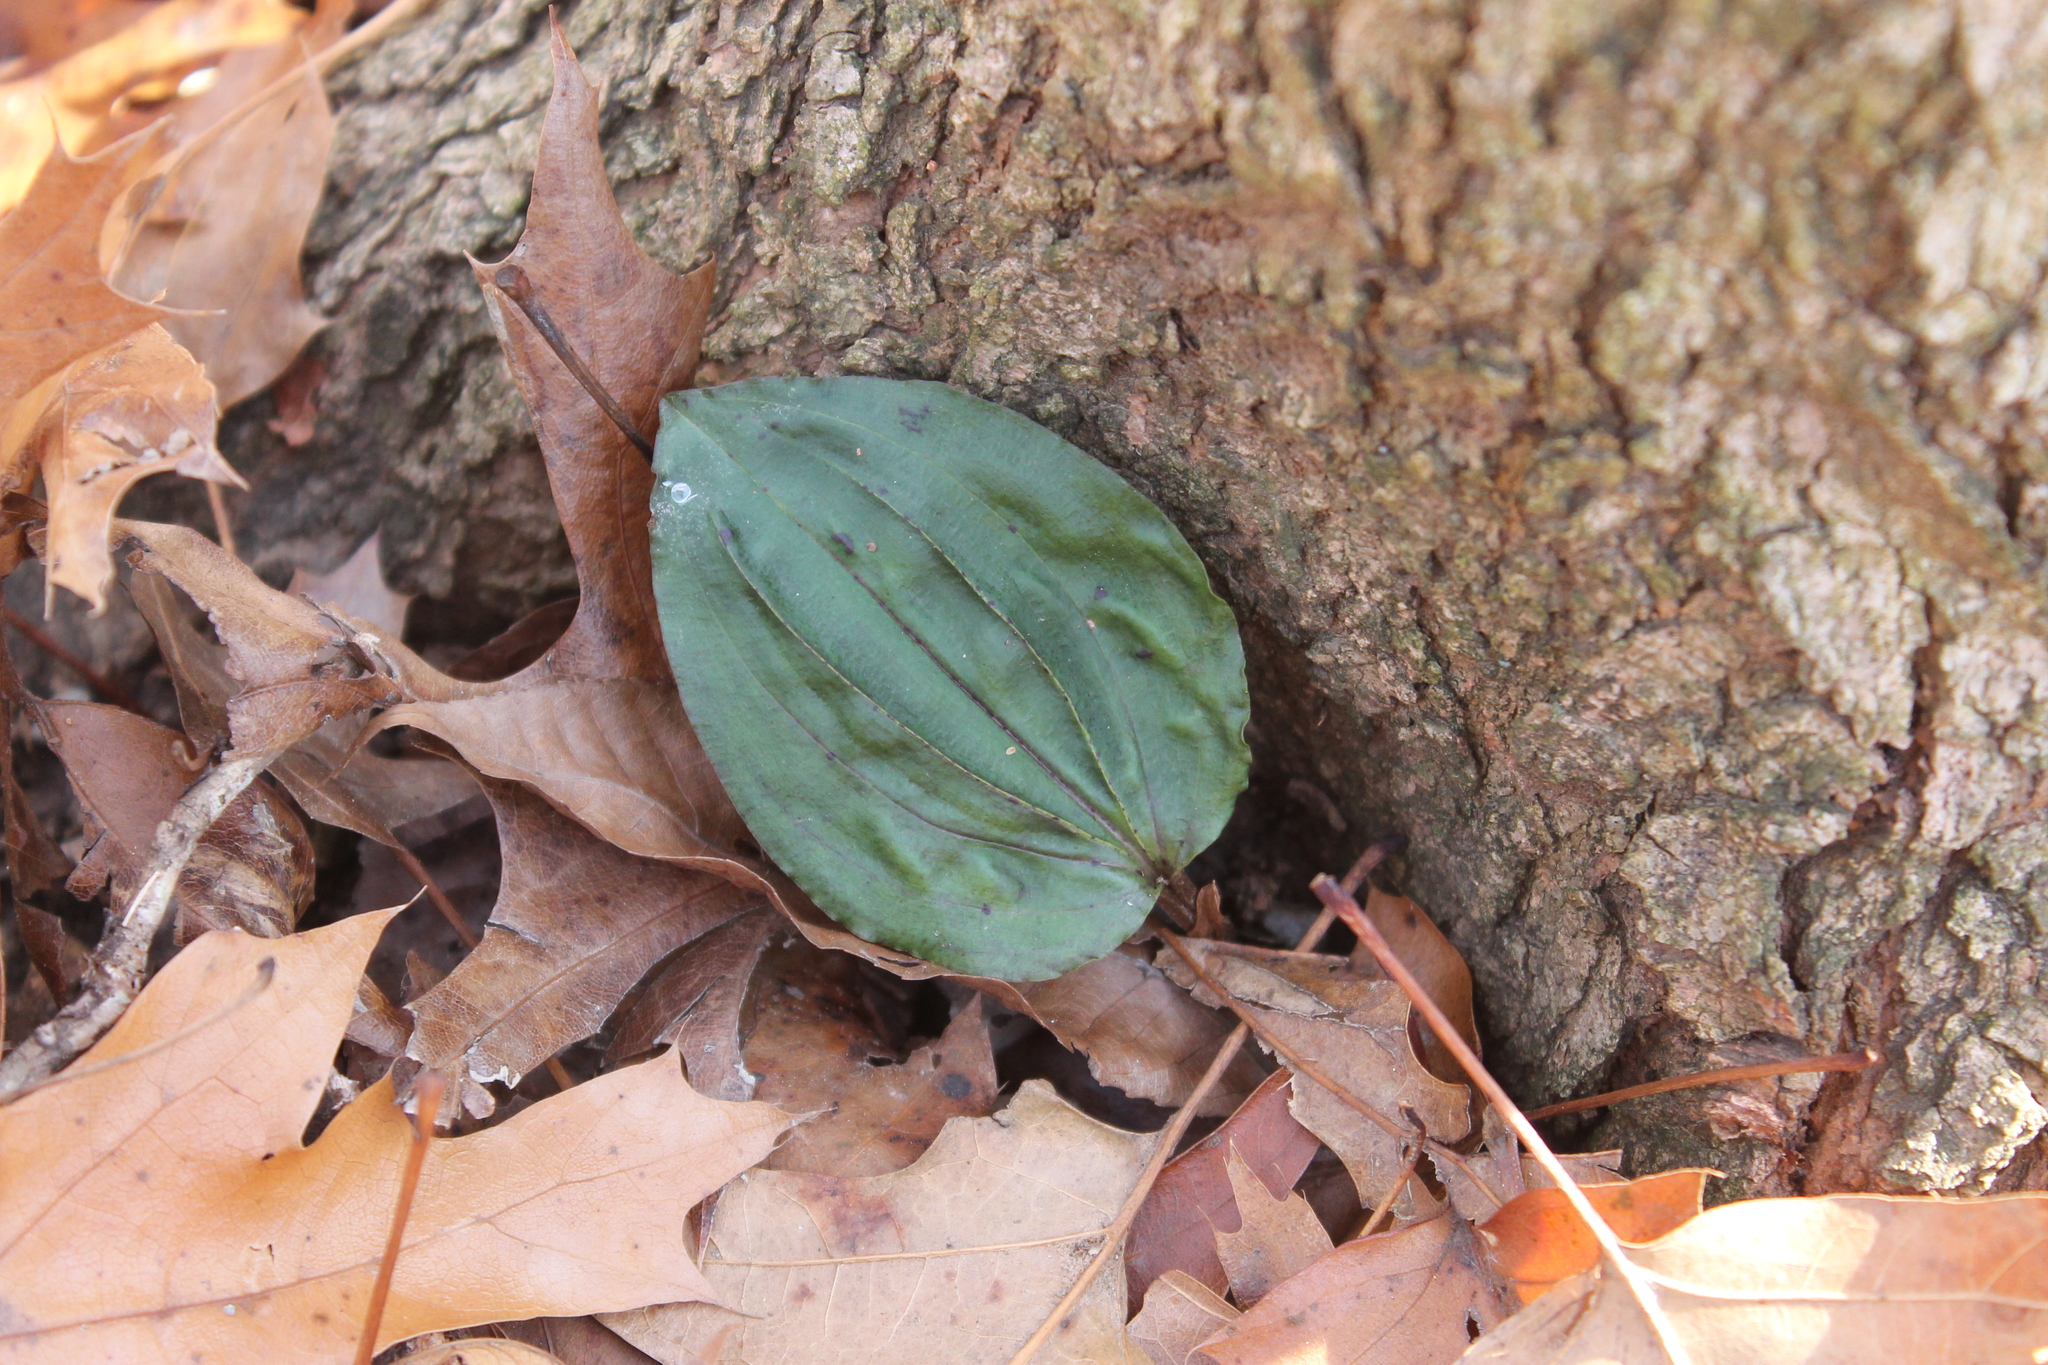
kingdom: Plantae
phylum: Tracheophyta
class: Liliopsida
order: Asparagales
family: Orchidaceae
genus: Tipularia
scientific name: Tipularia discolor
